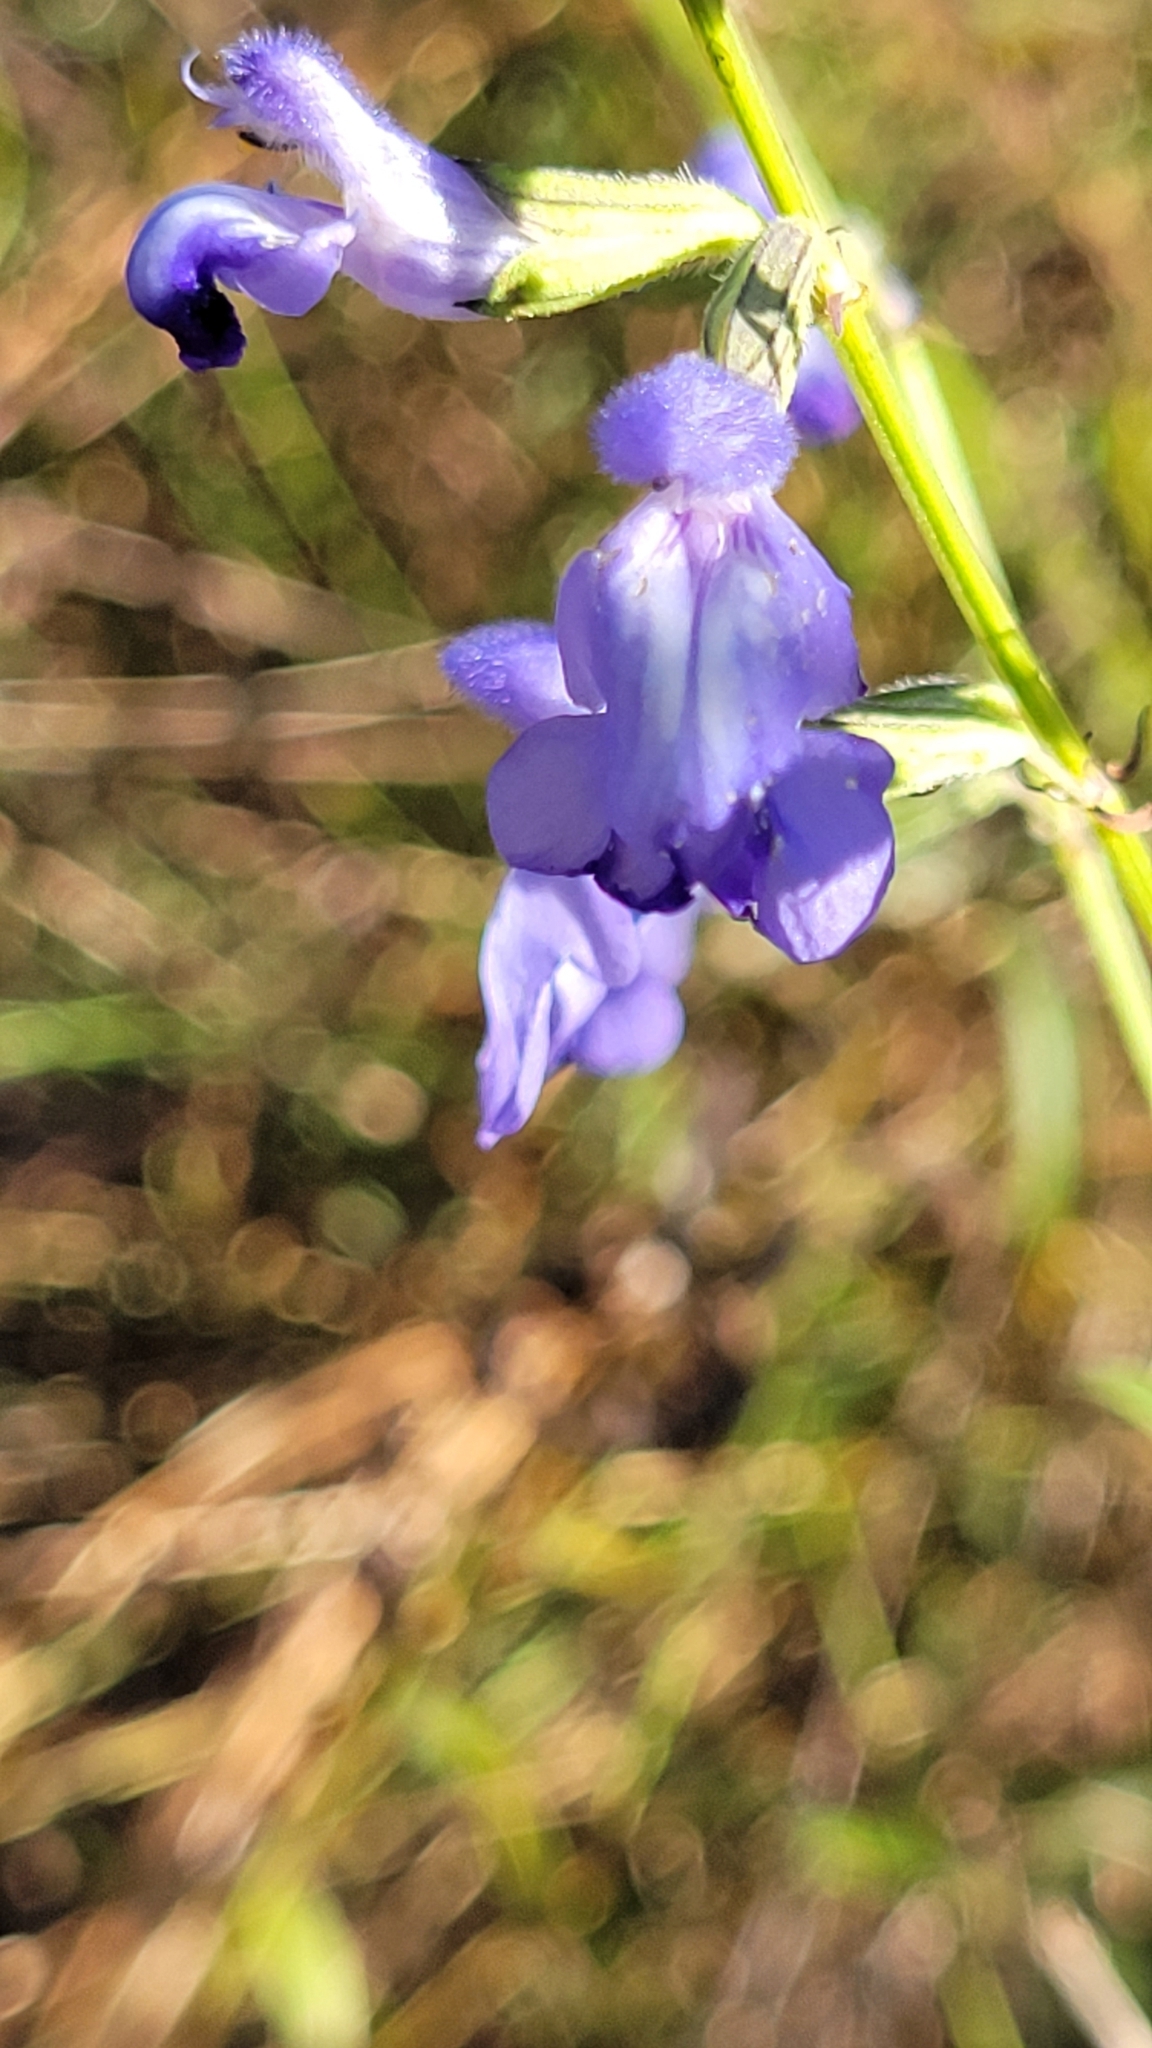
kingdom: Plantae
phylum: Tracheophyta
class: Magnoliopsida
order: Lamiales
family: Lamiaceae
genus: Salvia
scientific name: Salvia azurea
